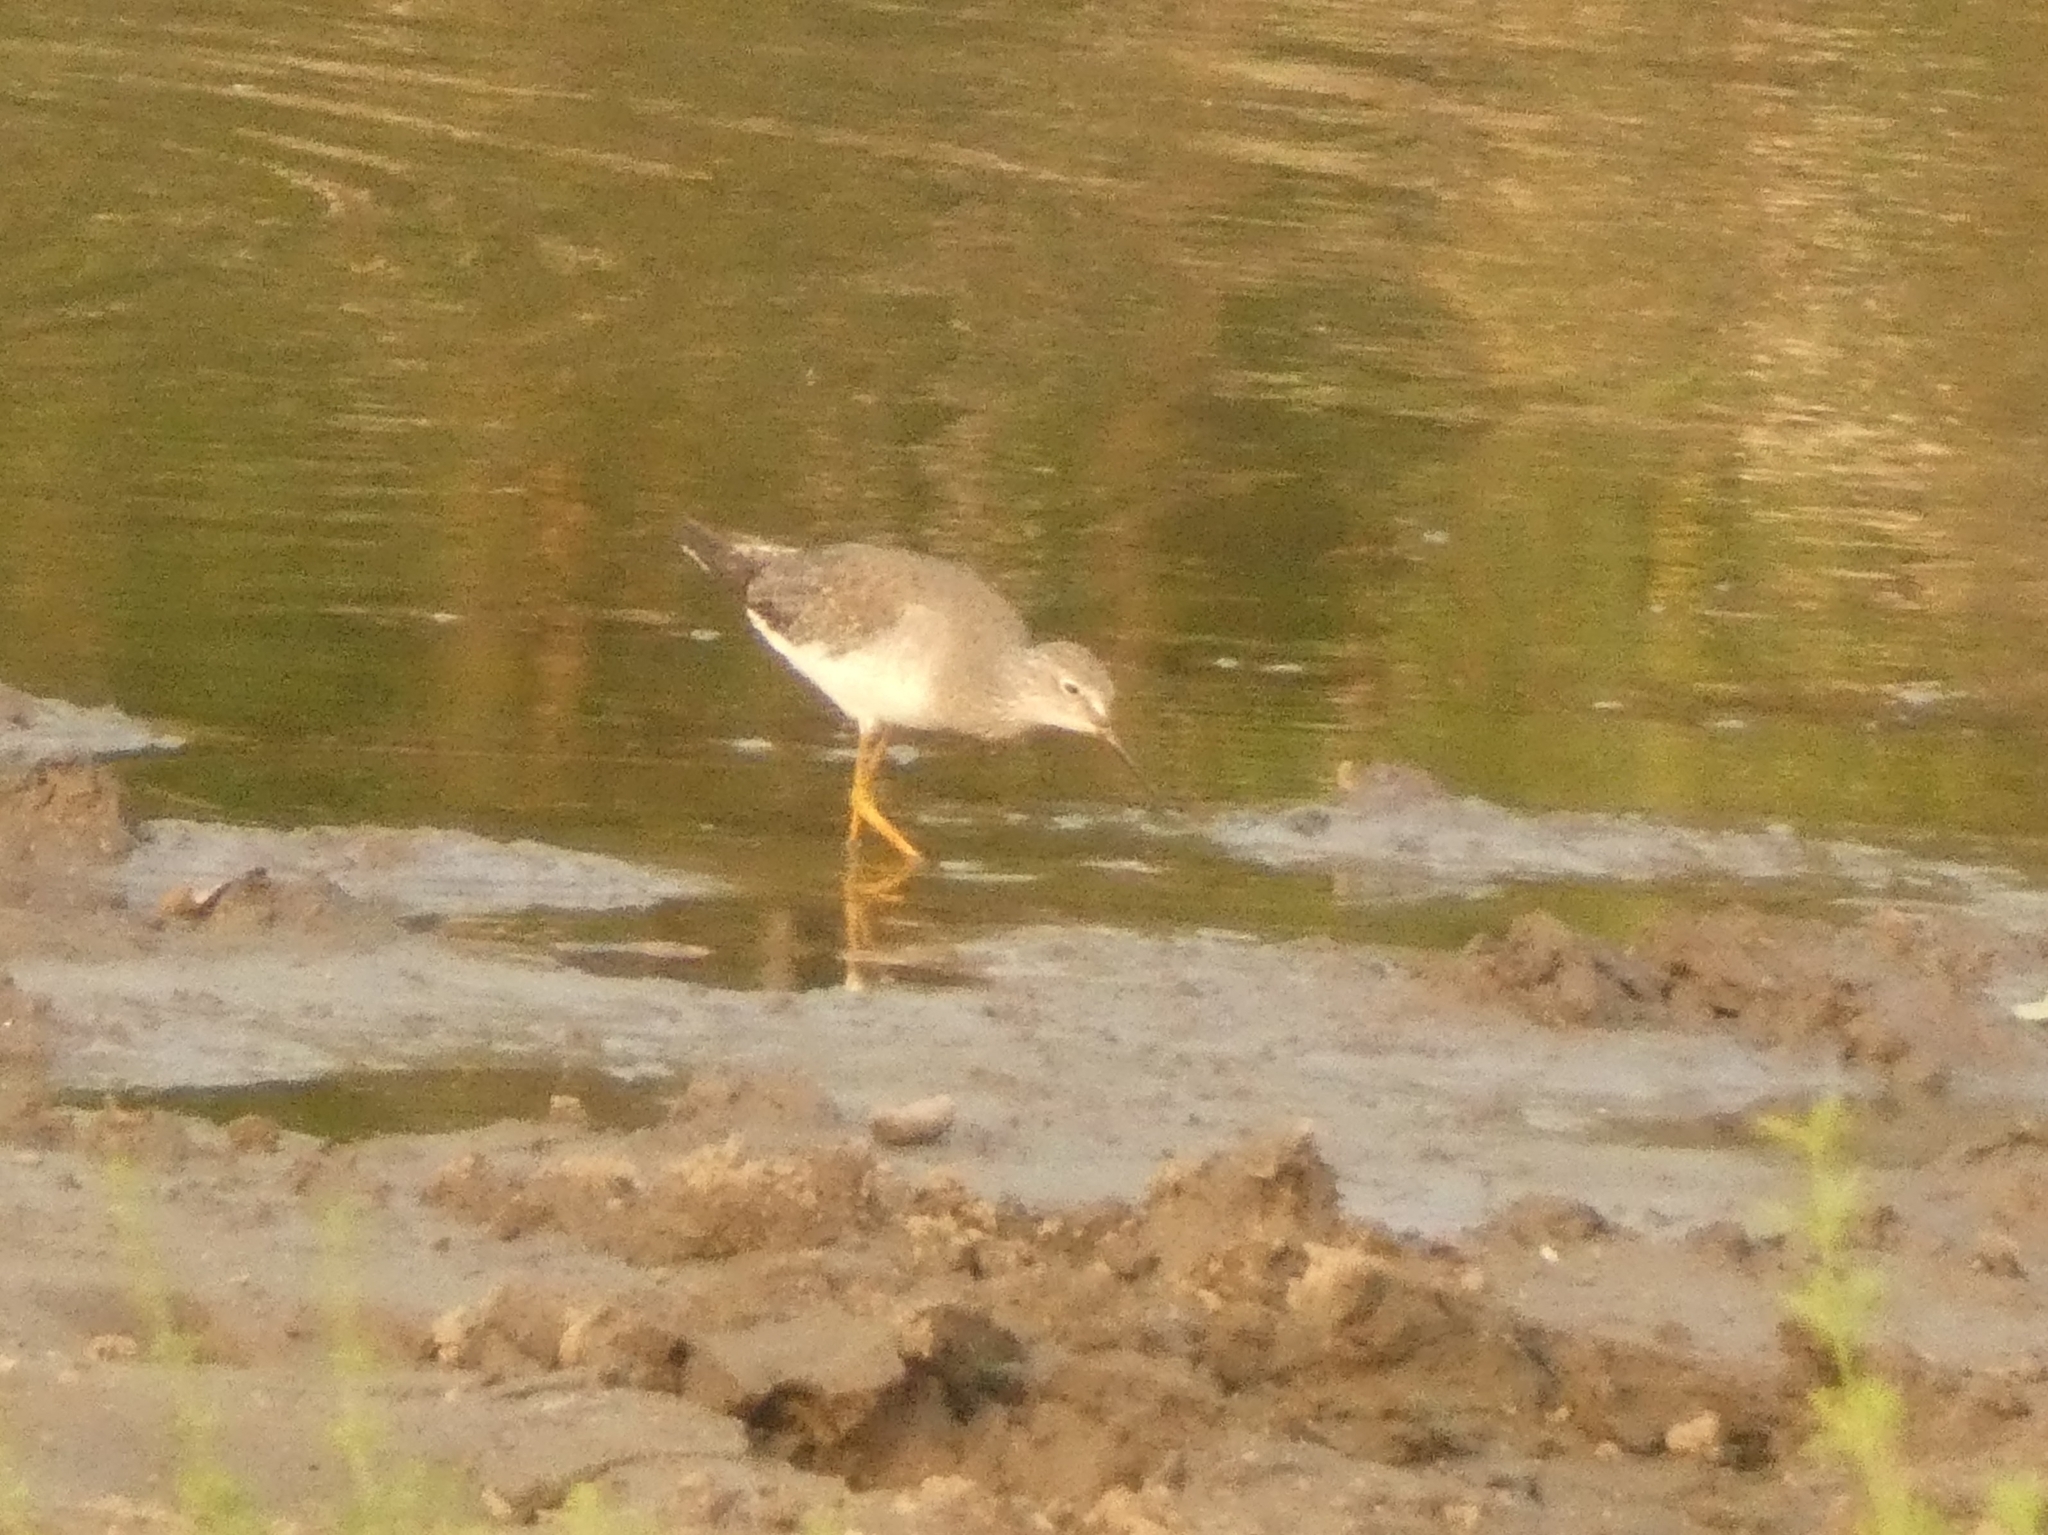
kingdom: Animalia
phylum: Chordata
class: Aves
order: Charadriiformes
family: Scolopacidae
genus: Tringa
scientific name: Tringa flavipes
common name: Lesser yellowlegs
